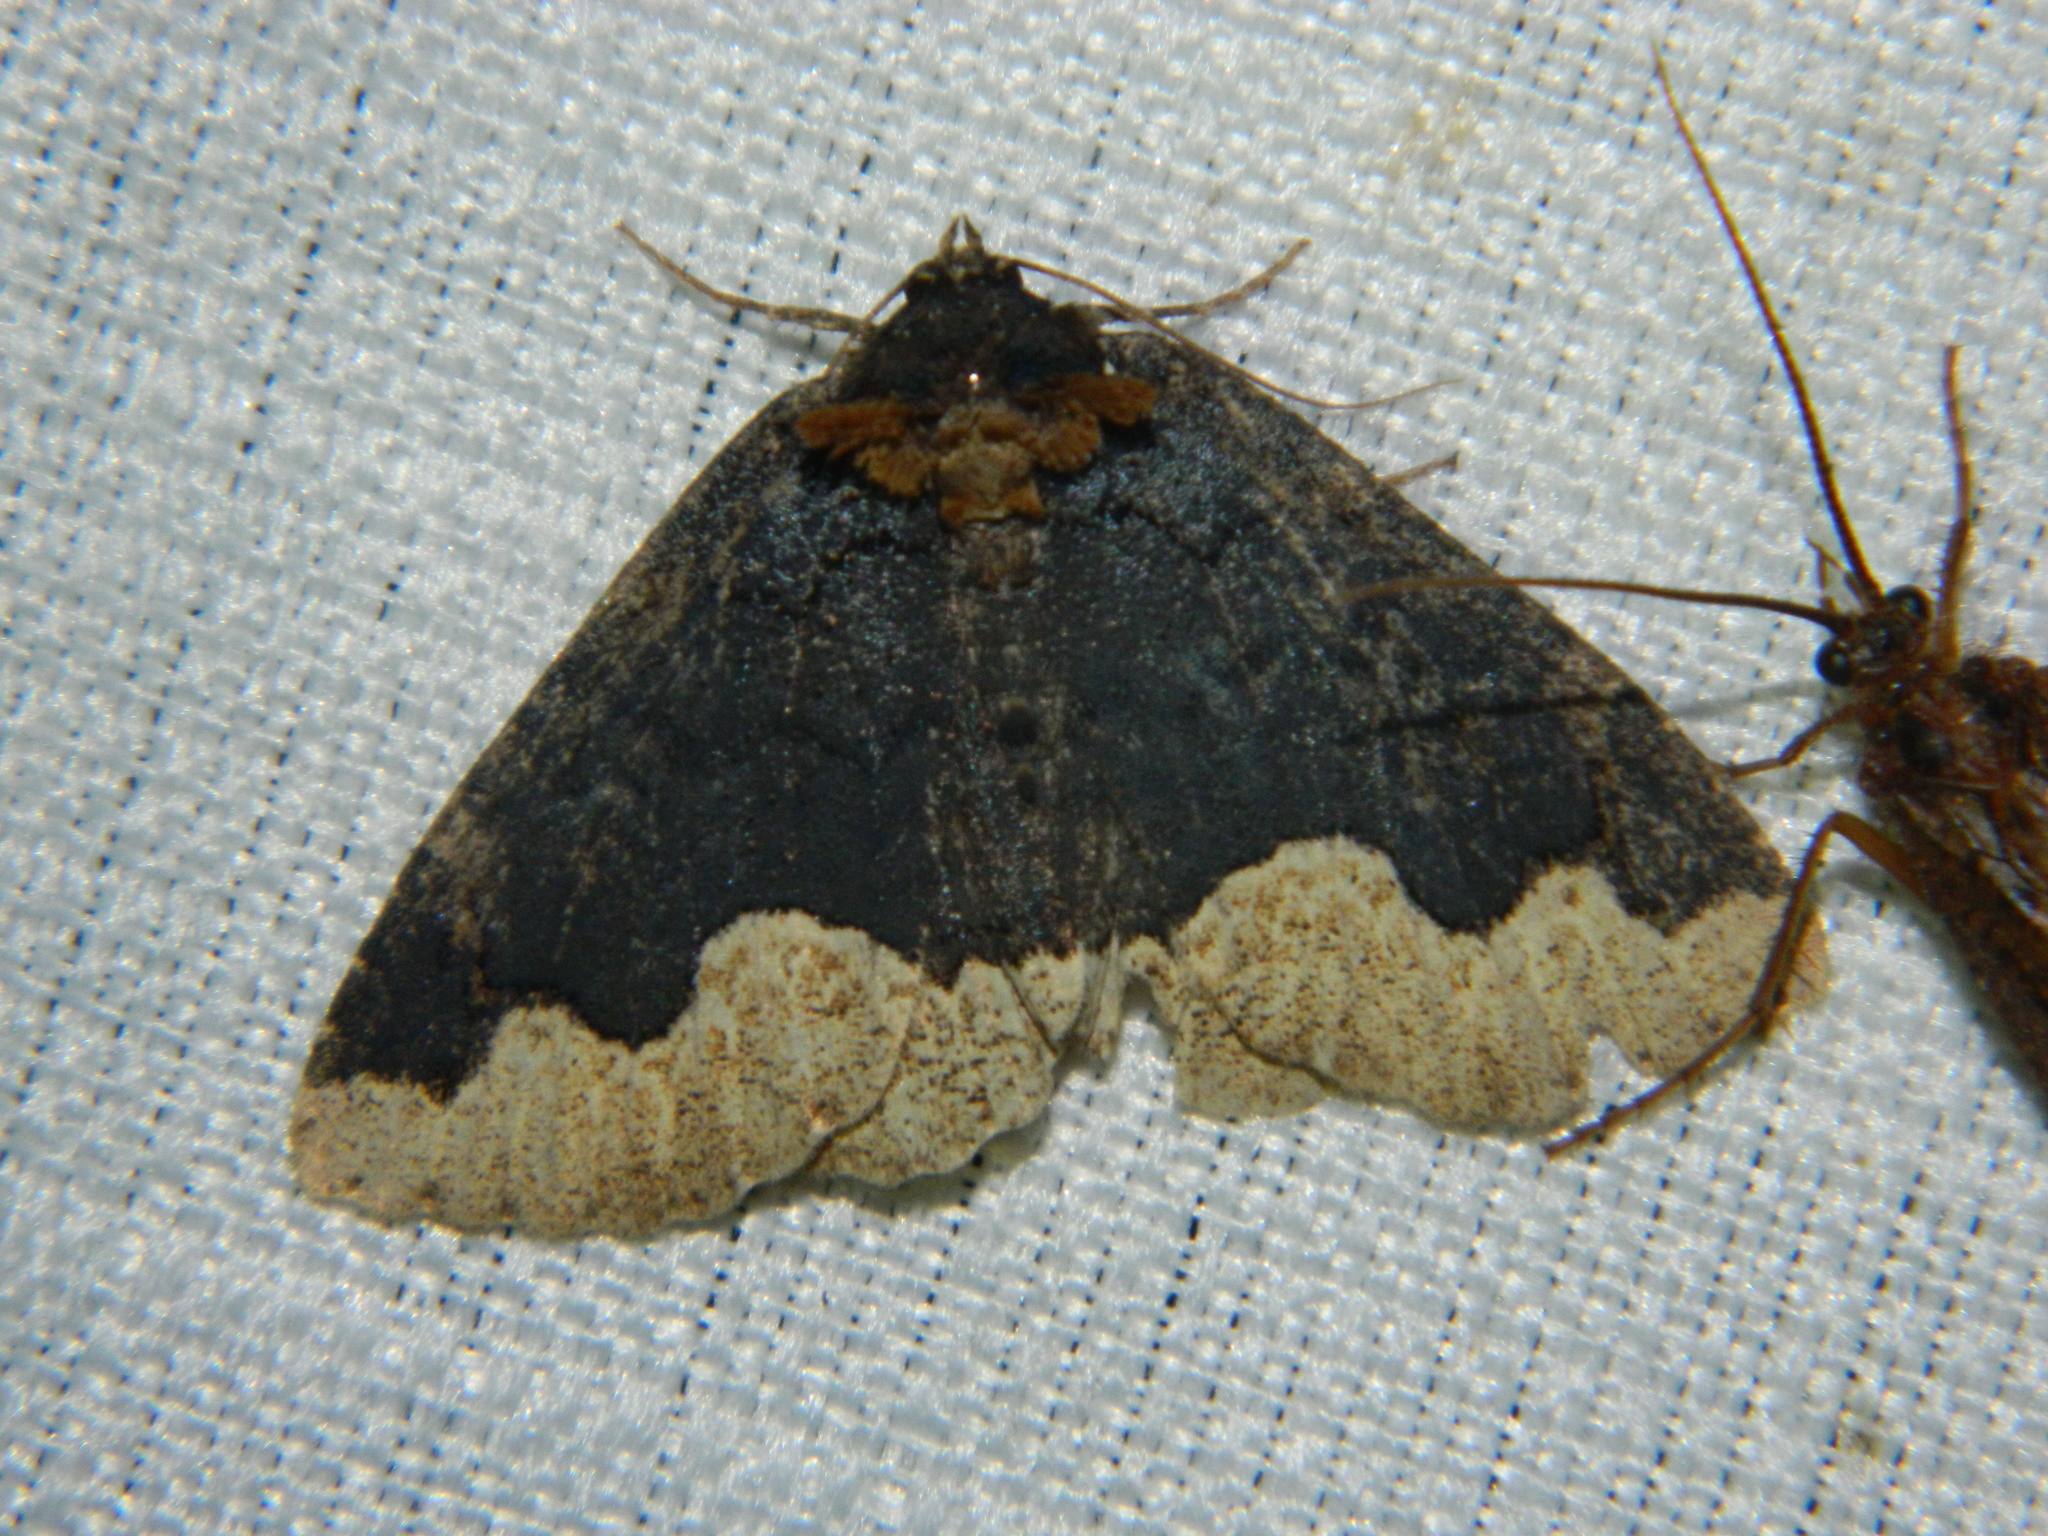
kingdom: Animalia
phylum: Arthropoda
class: Insecta
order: Lepidoptera
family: Erebidae
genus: Zale
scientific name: Zale horrida
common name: Horrid zale moth
